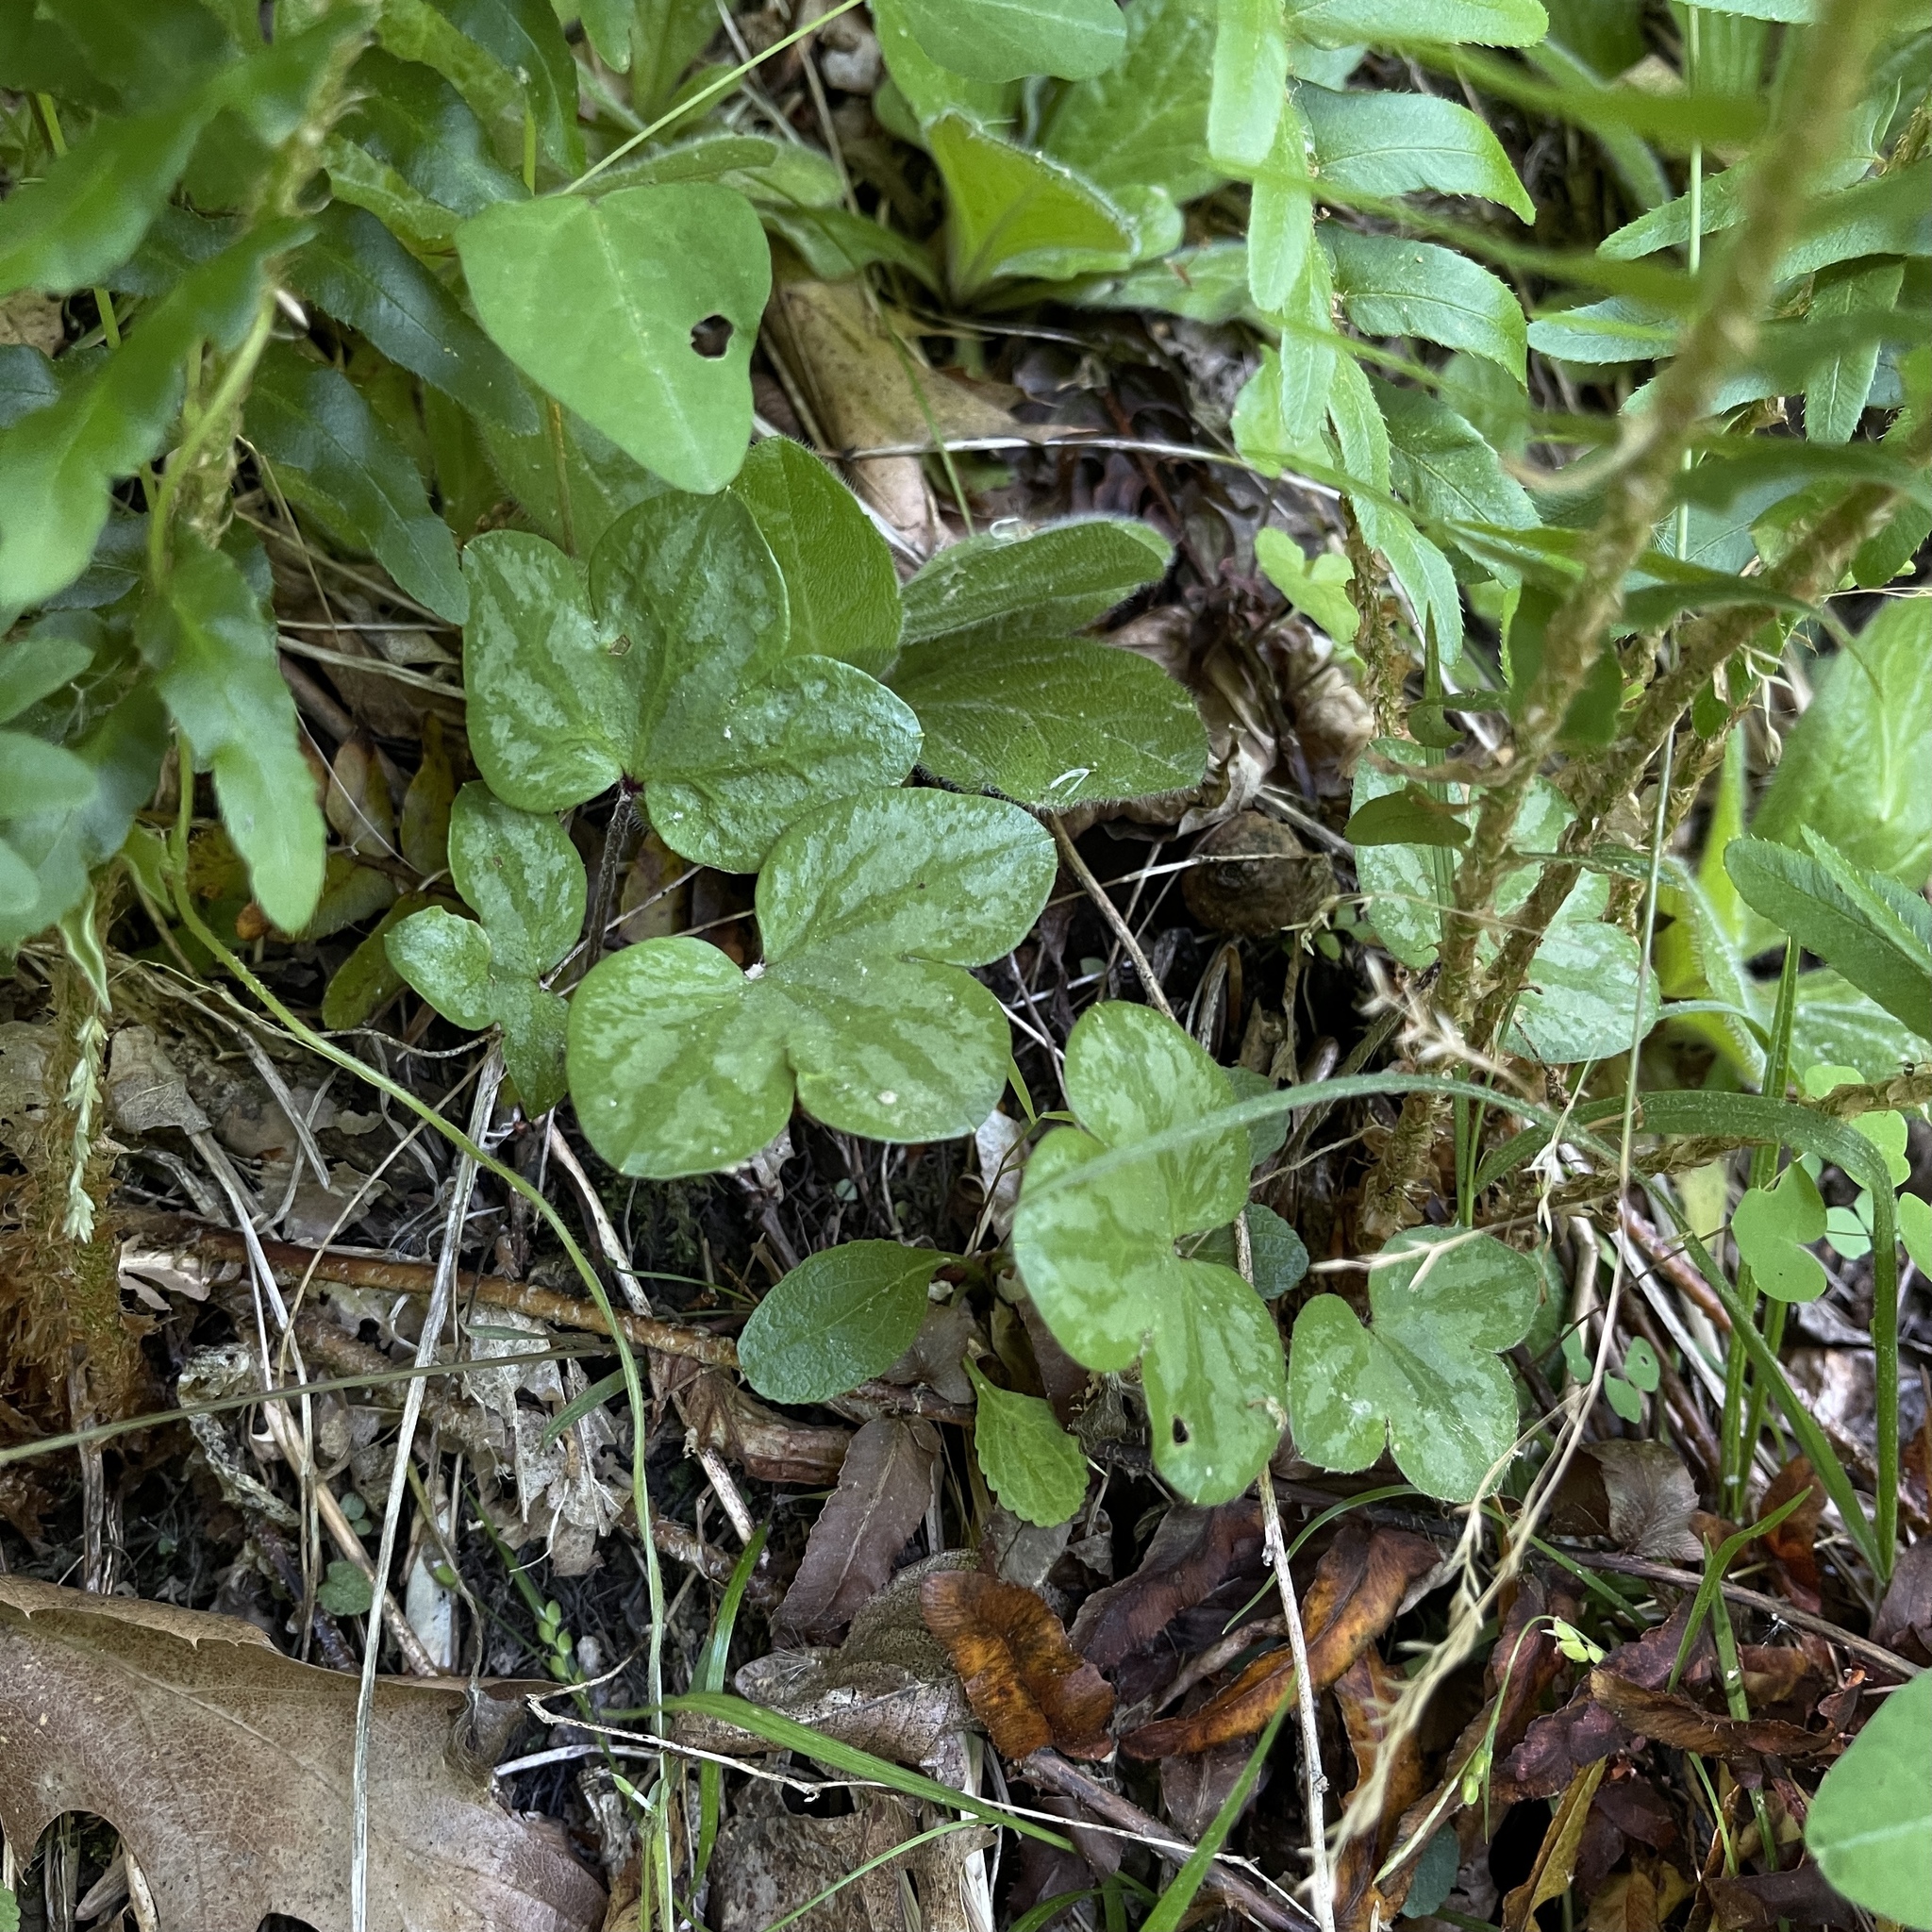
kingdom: Plantae
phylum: Tracheophyta
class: Magnoliopsida
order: Ranunculales
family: Ranunculaceae
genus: Hepatica
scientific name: Hepatica americana
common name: American hepatica
